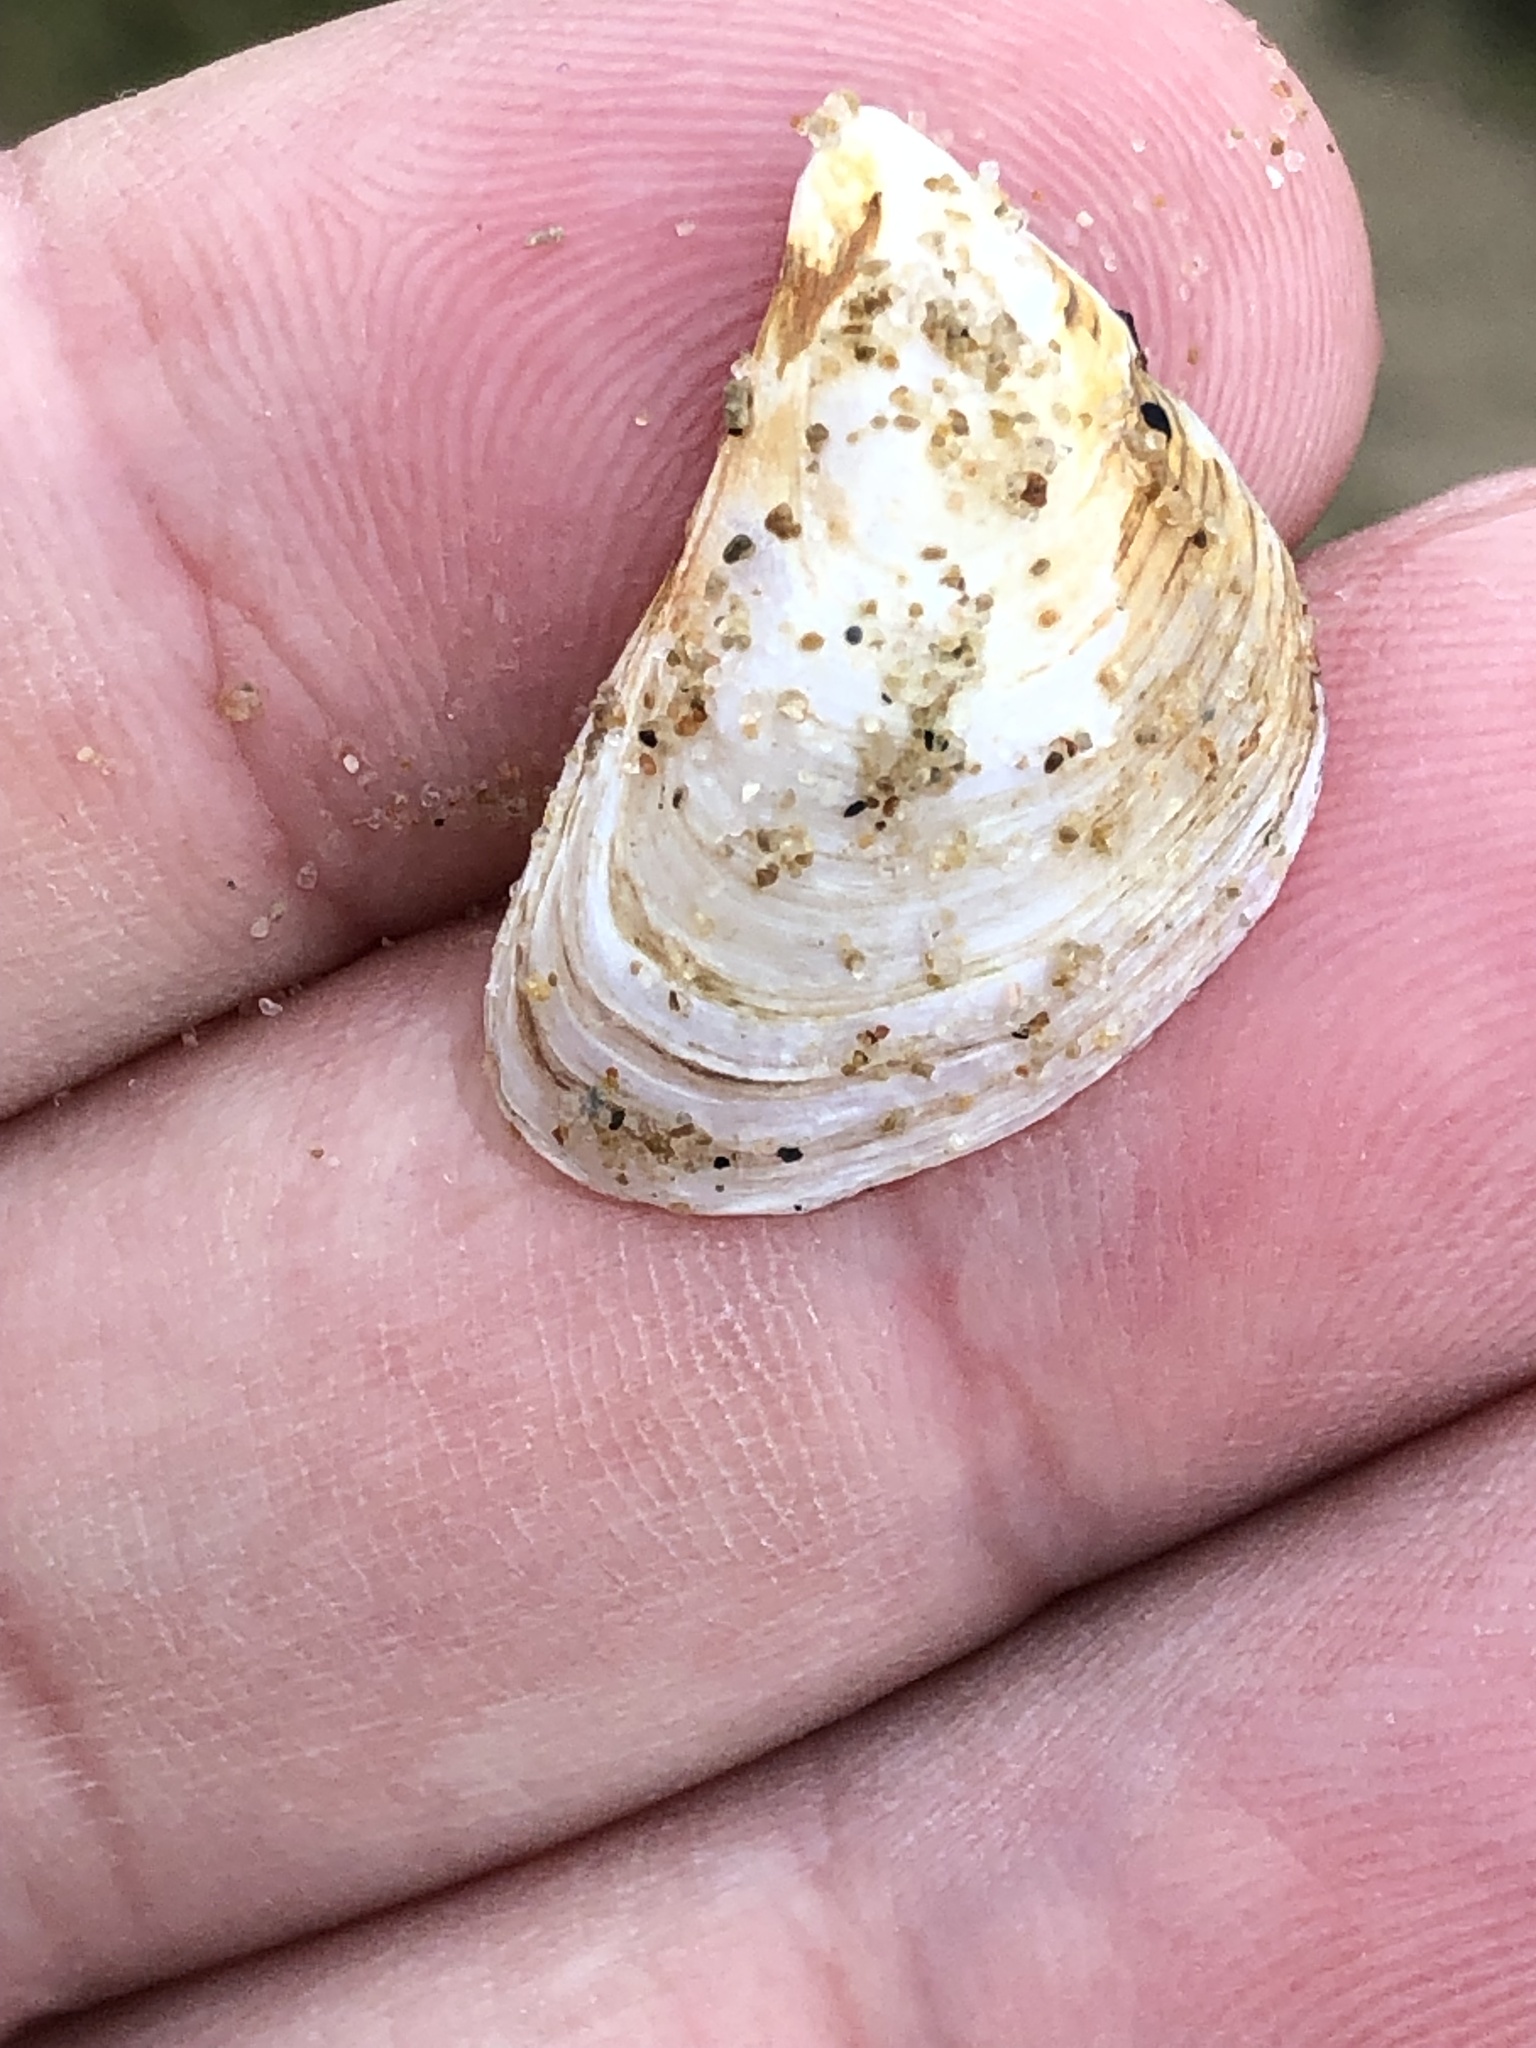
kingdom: Animalia
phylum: Mollusca
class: Bivalvia
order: Myida
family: Dreissenidae
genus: Dreissena
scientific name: Dreissena bugensis
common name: Quagga mussel
